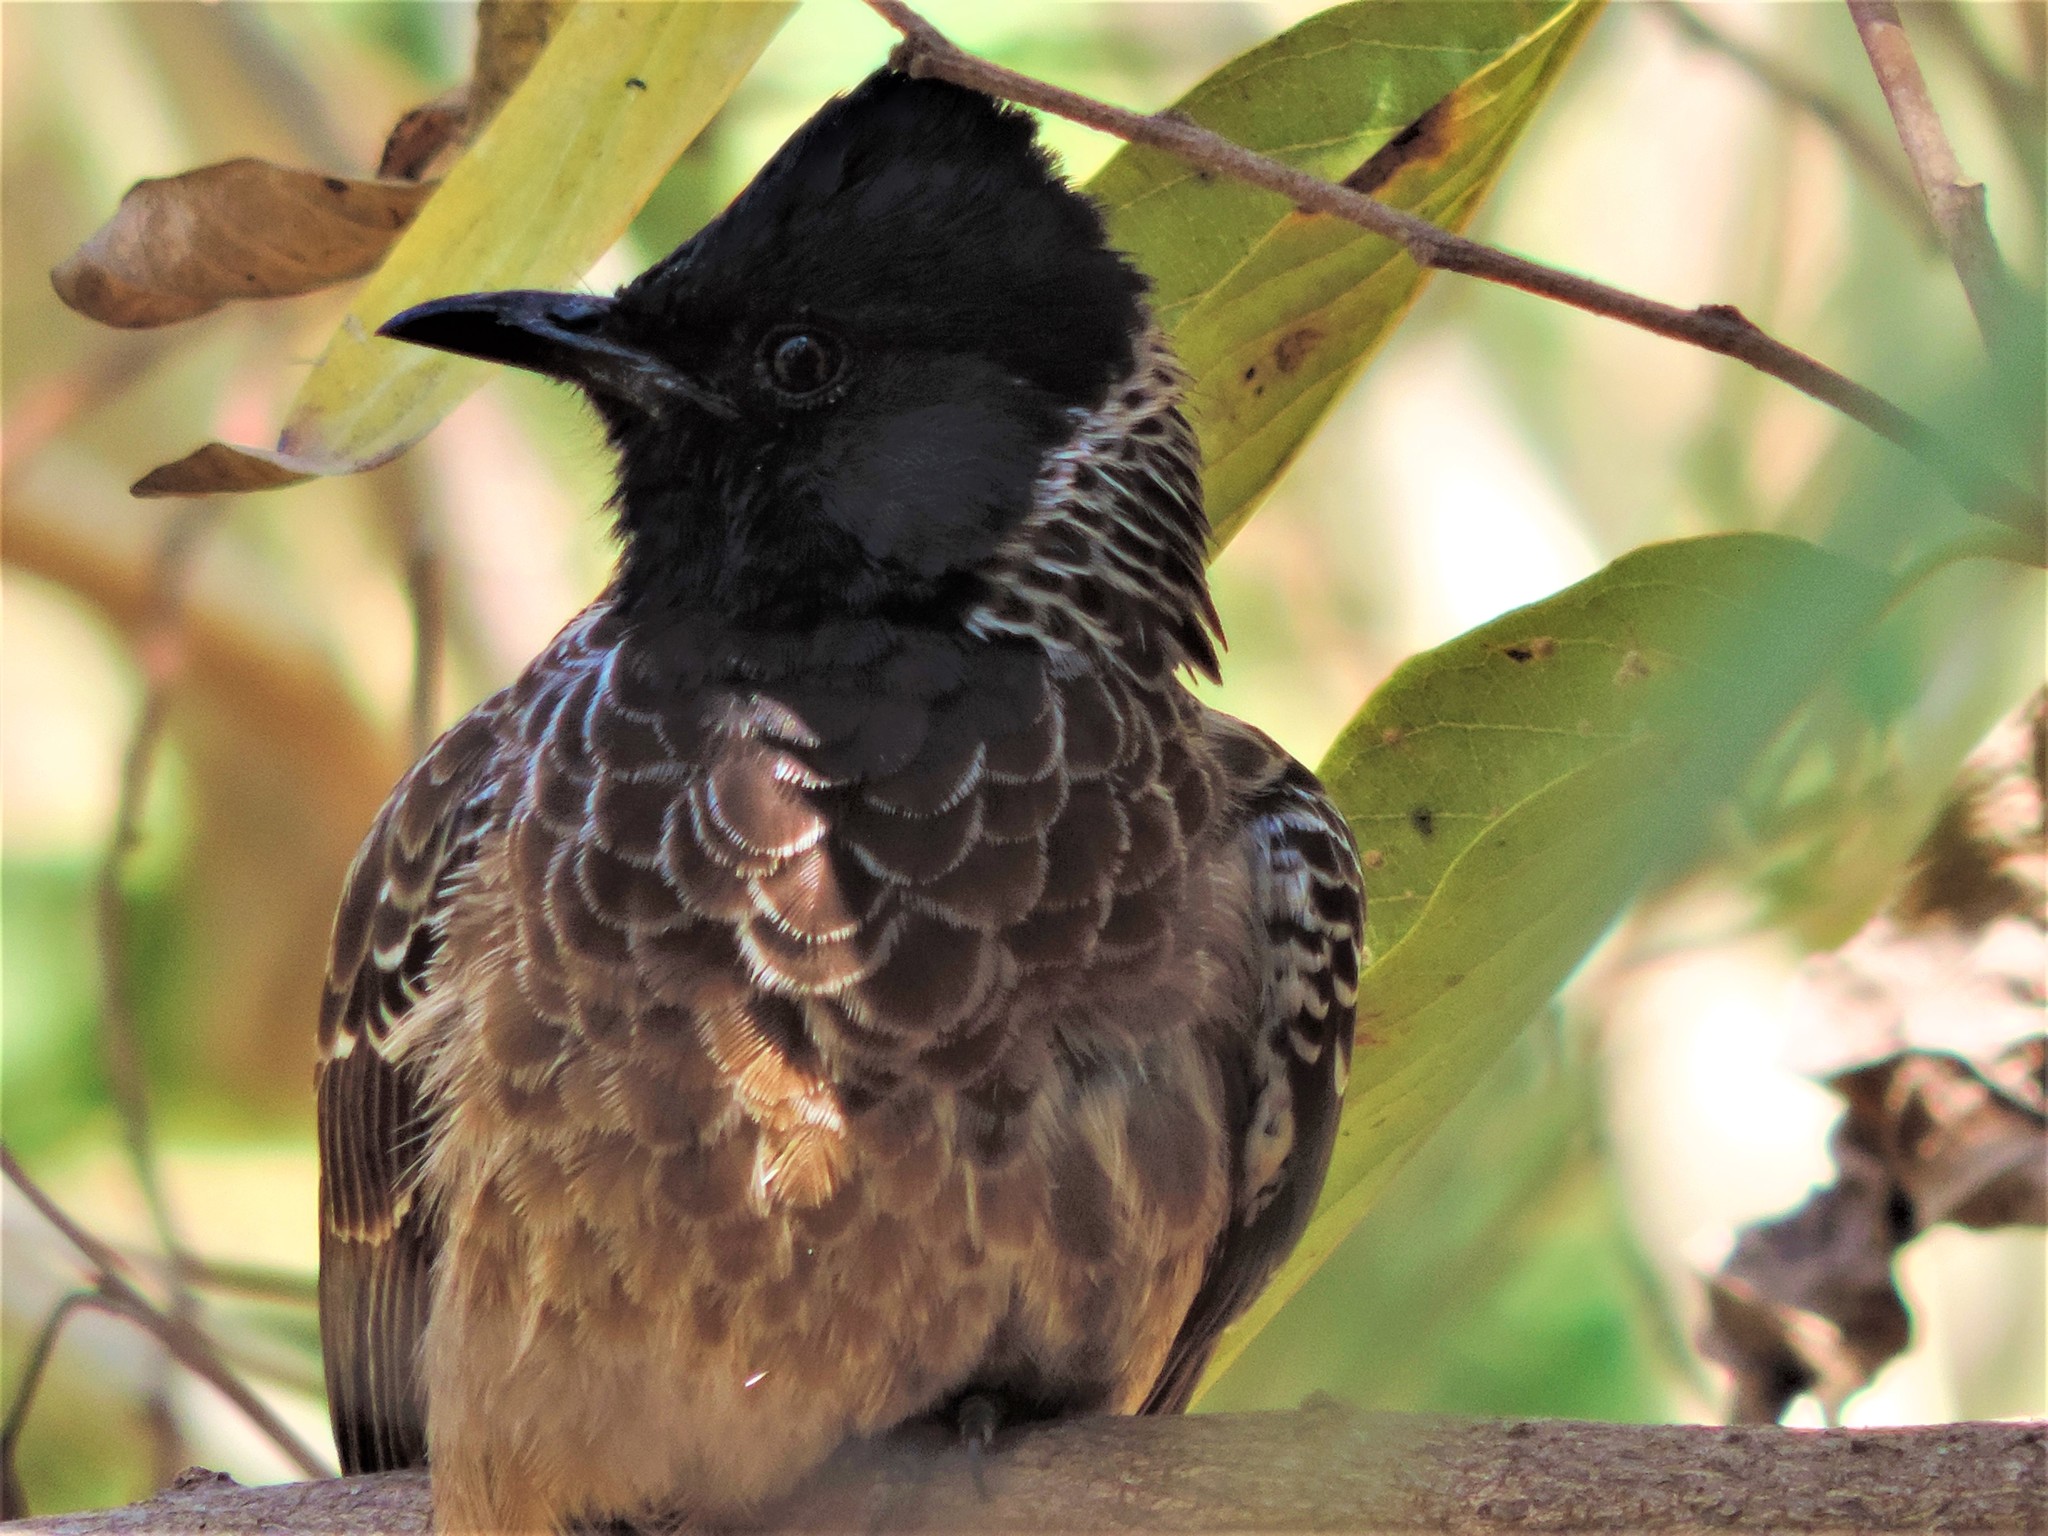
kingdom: Animalia
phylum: Chordata
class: Aves
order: Passeriformes
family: Pycnonotidae
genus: Pycnonotus
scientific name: Pycnonotus cafer
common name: Red-vented bulbul
